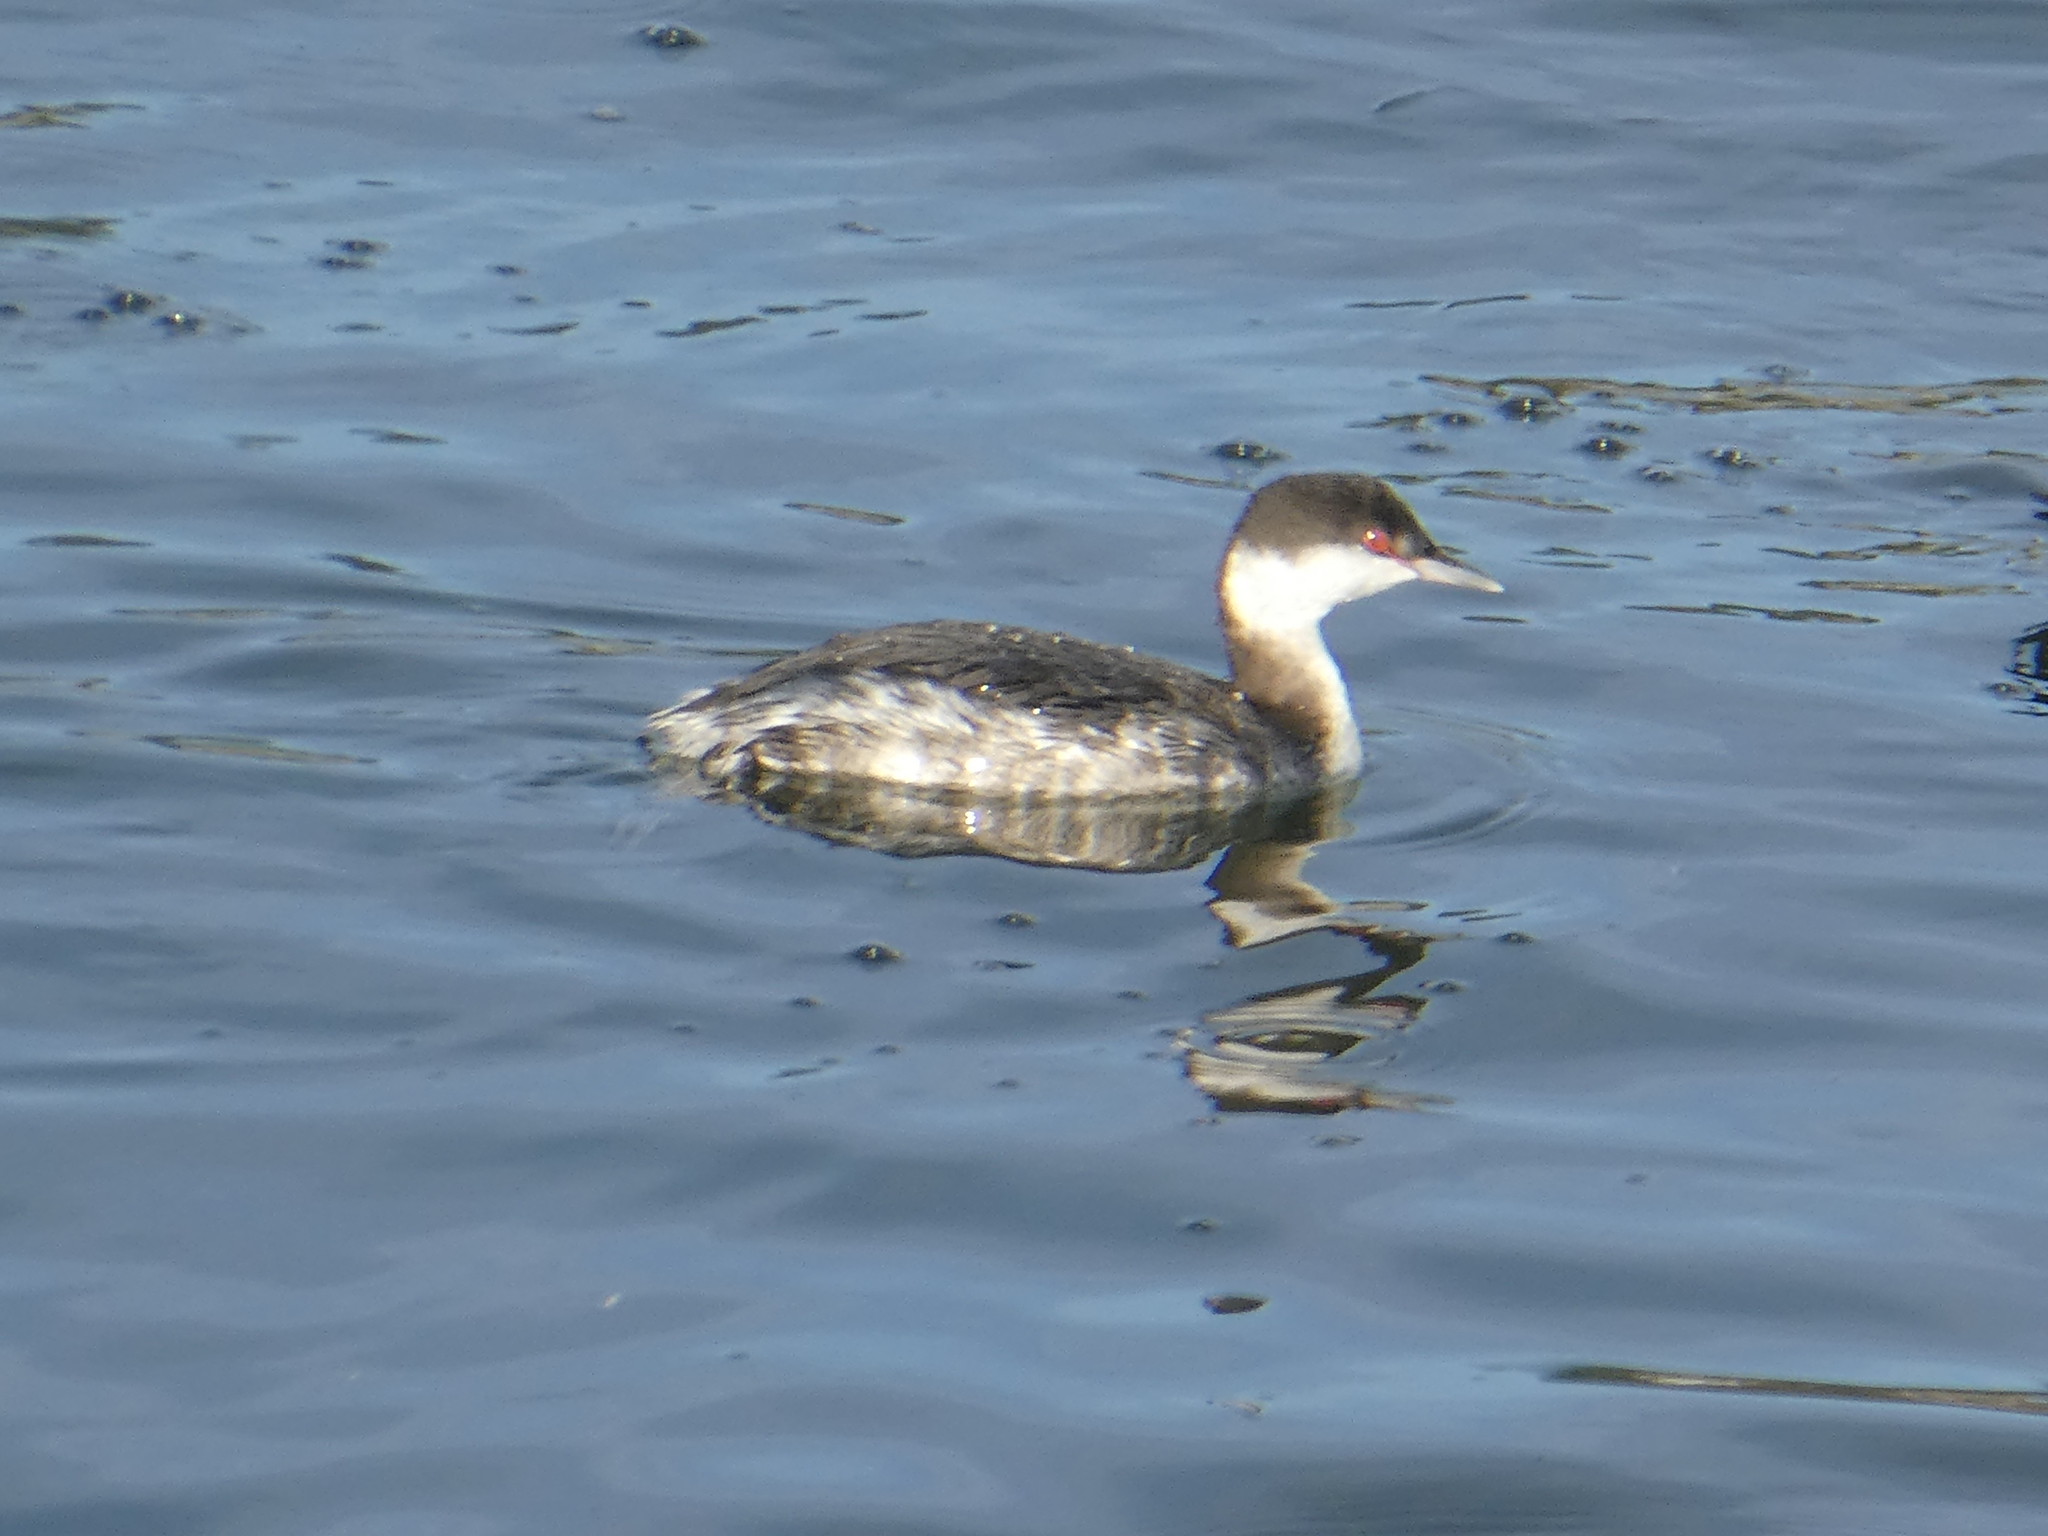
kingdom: Animalia
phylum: Chordata
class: Aves
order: Podicipediformes
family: Podicipedidae
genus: Podiceps
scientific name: Podiceps auritus
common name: Horned grebe
